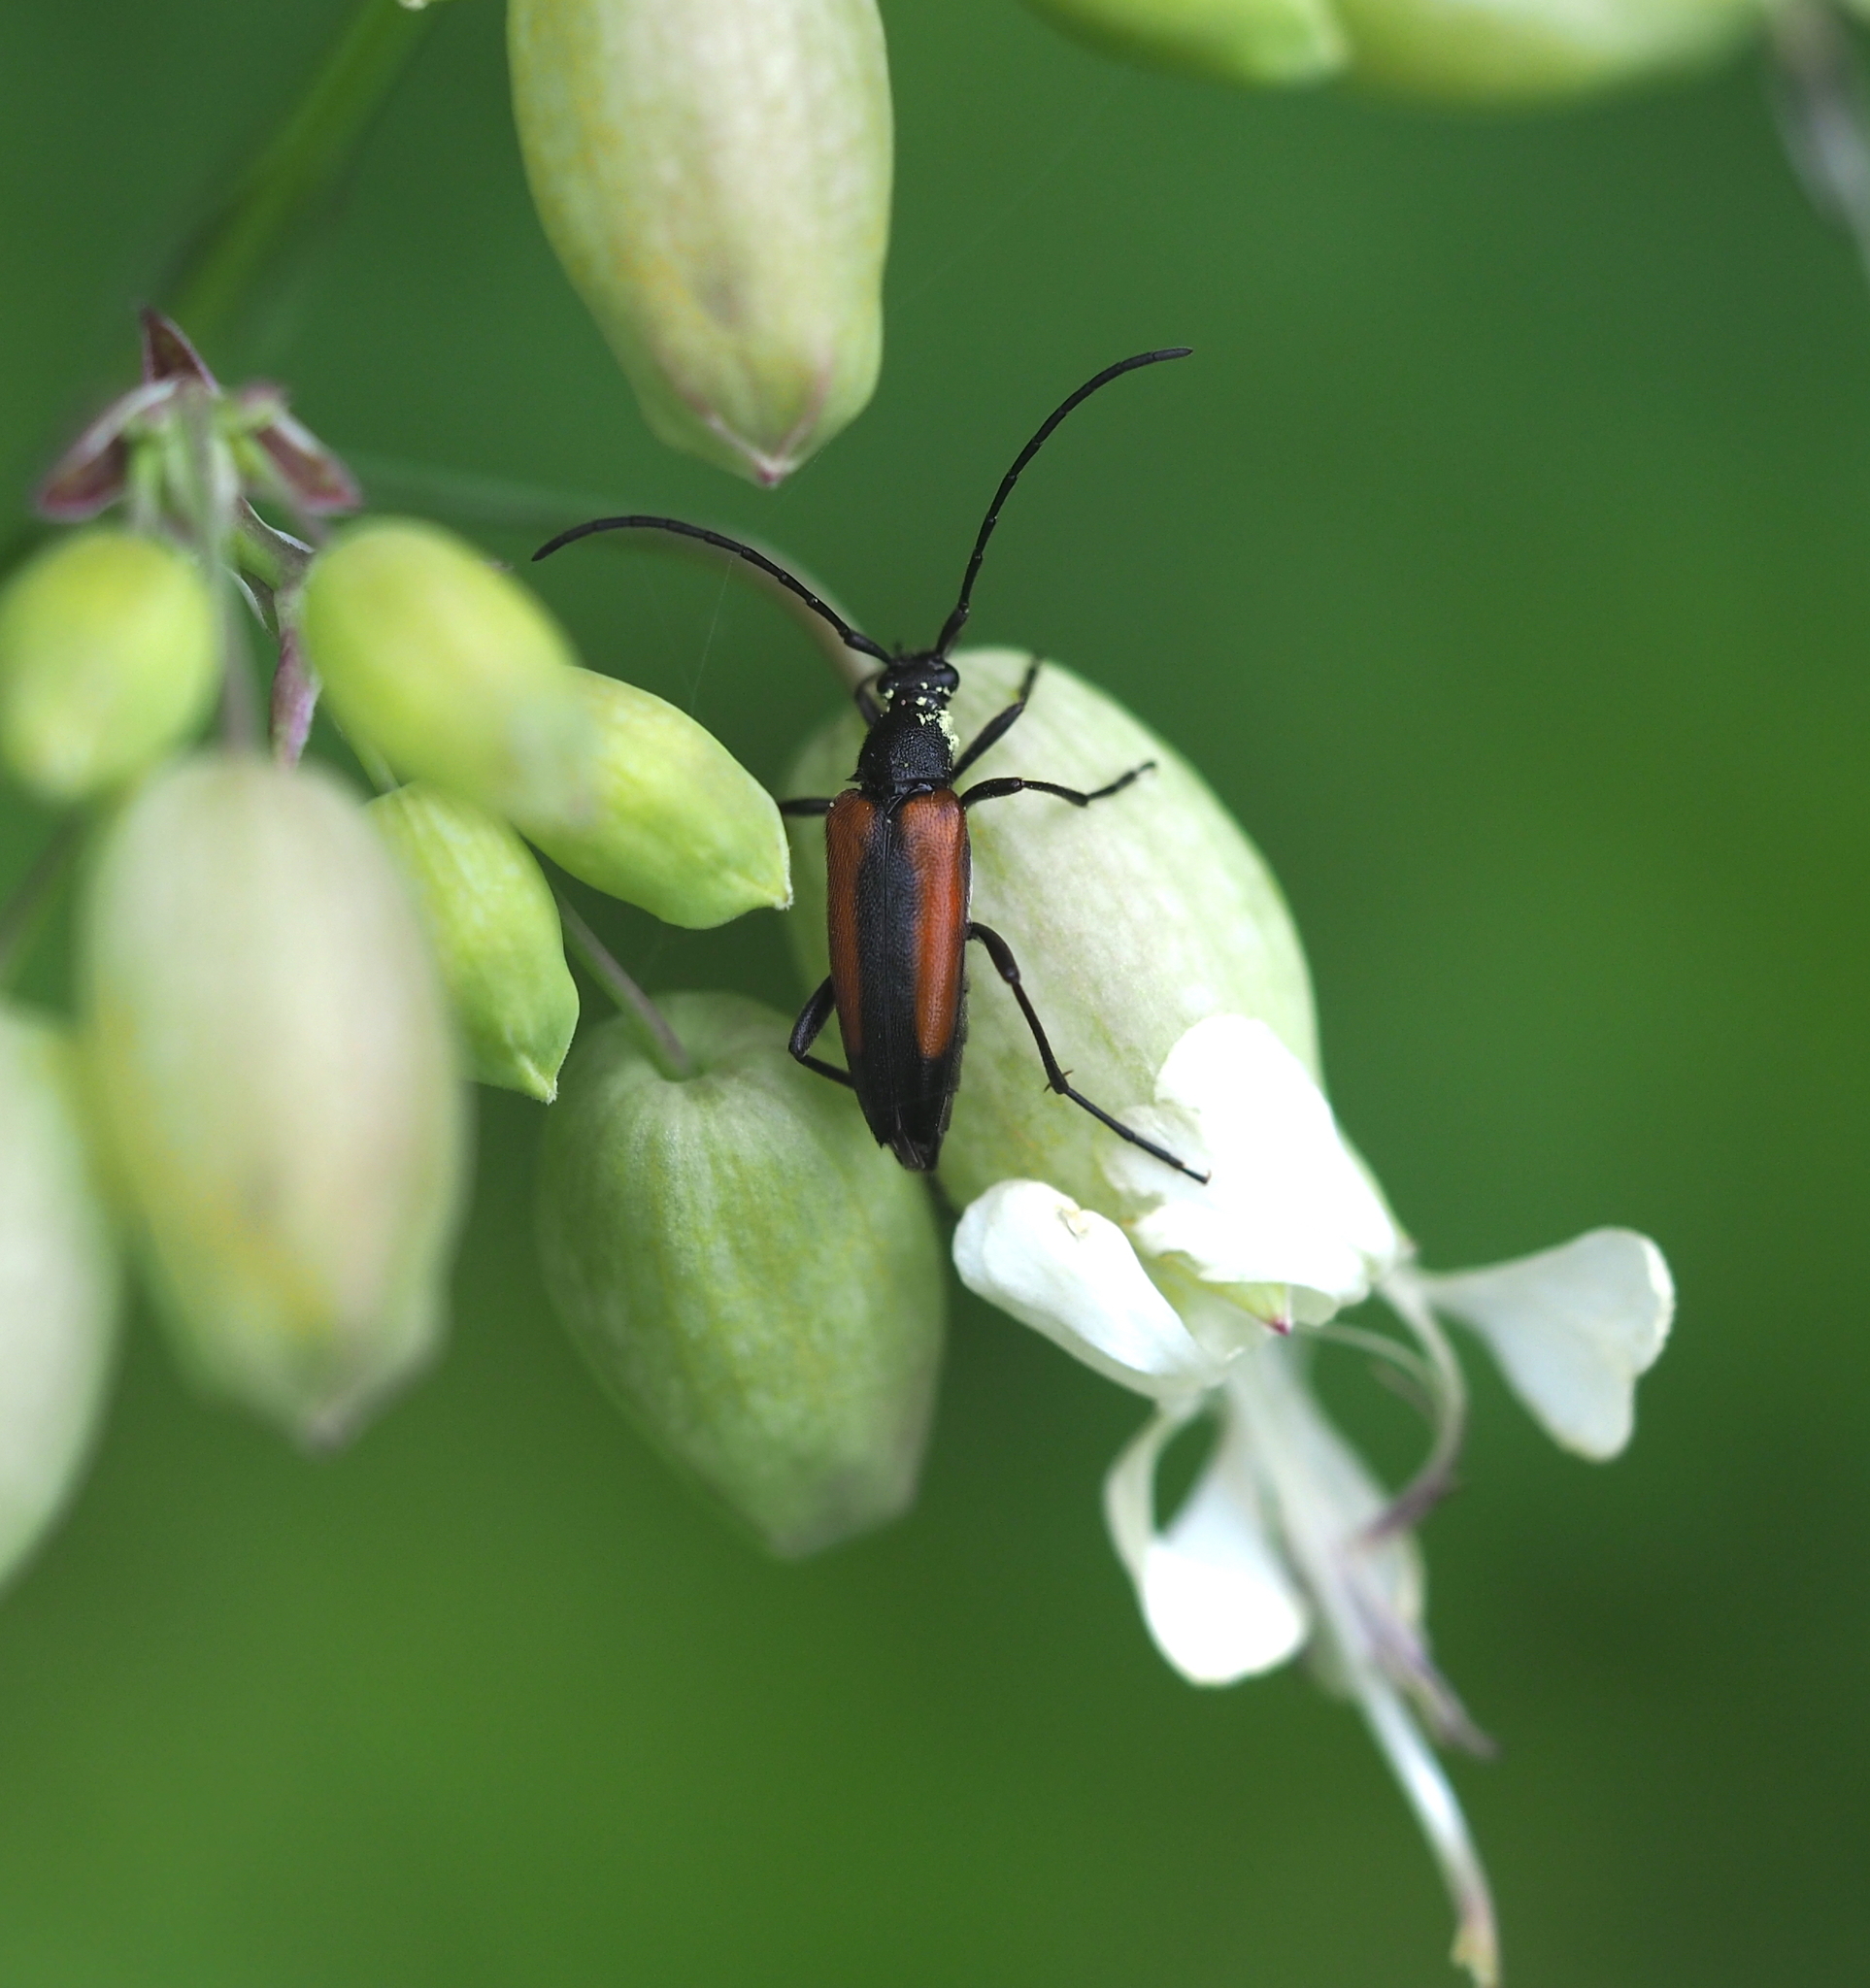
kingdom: Animalia
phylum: Arthropoda
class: Insecta
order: Coleoptera
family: Cerambycidae
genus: Stenurella
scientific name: Stenurella melanura
